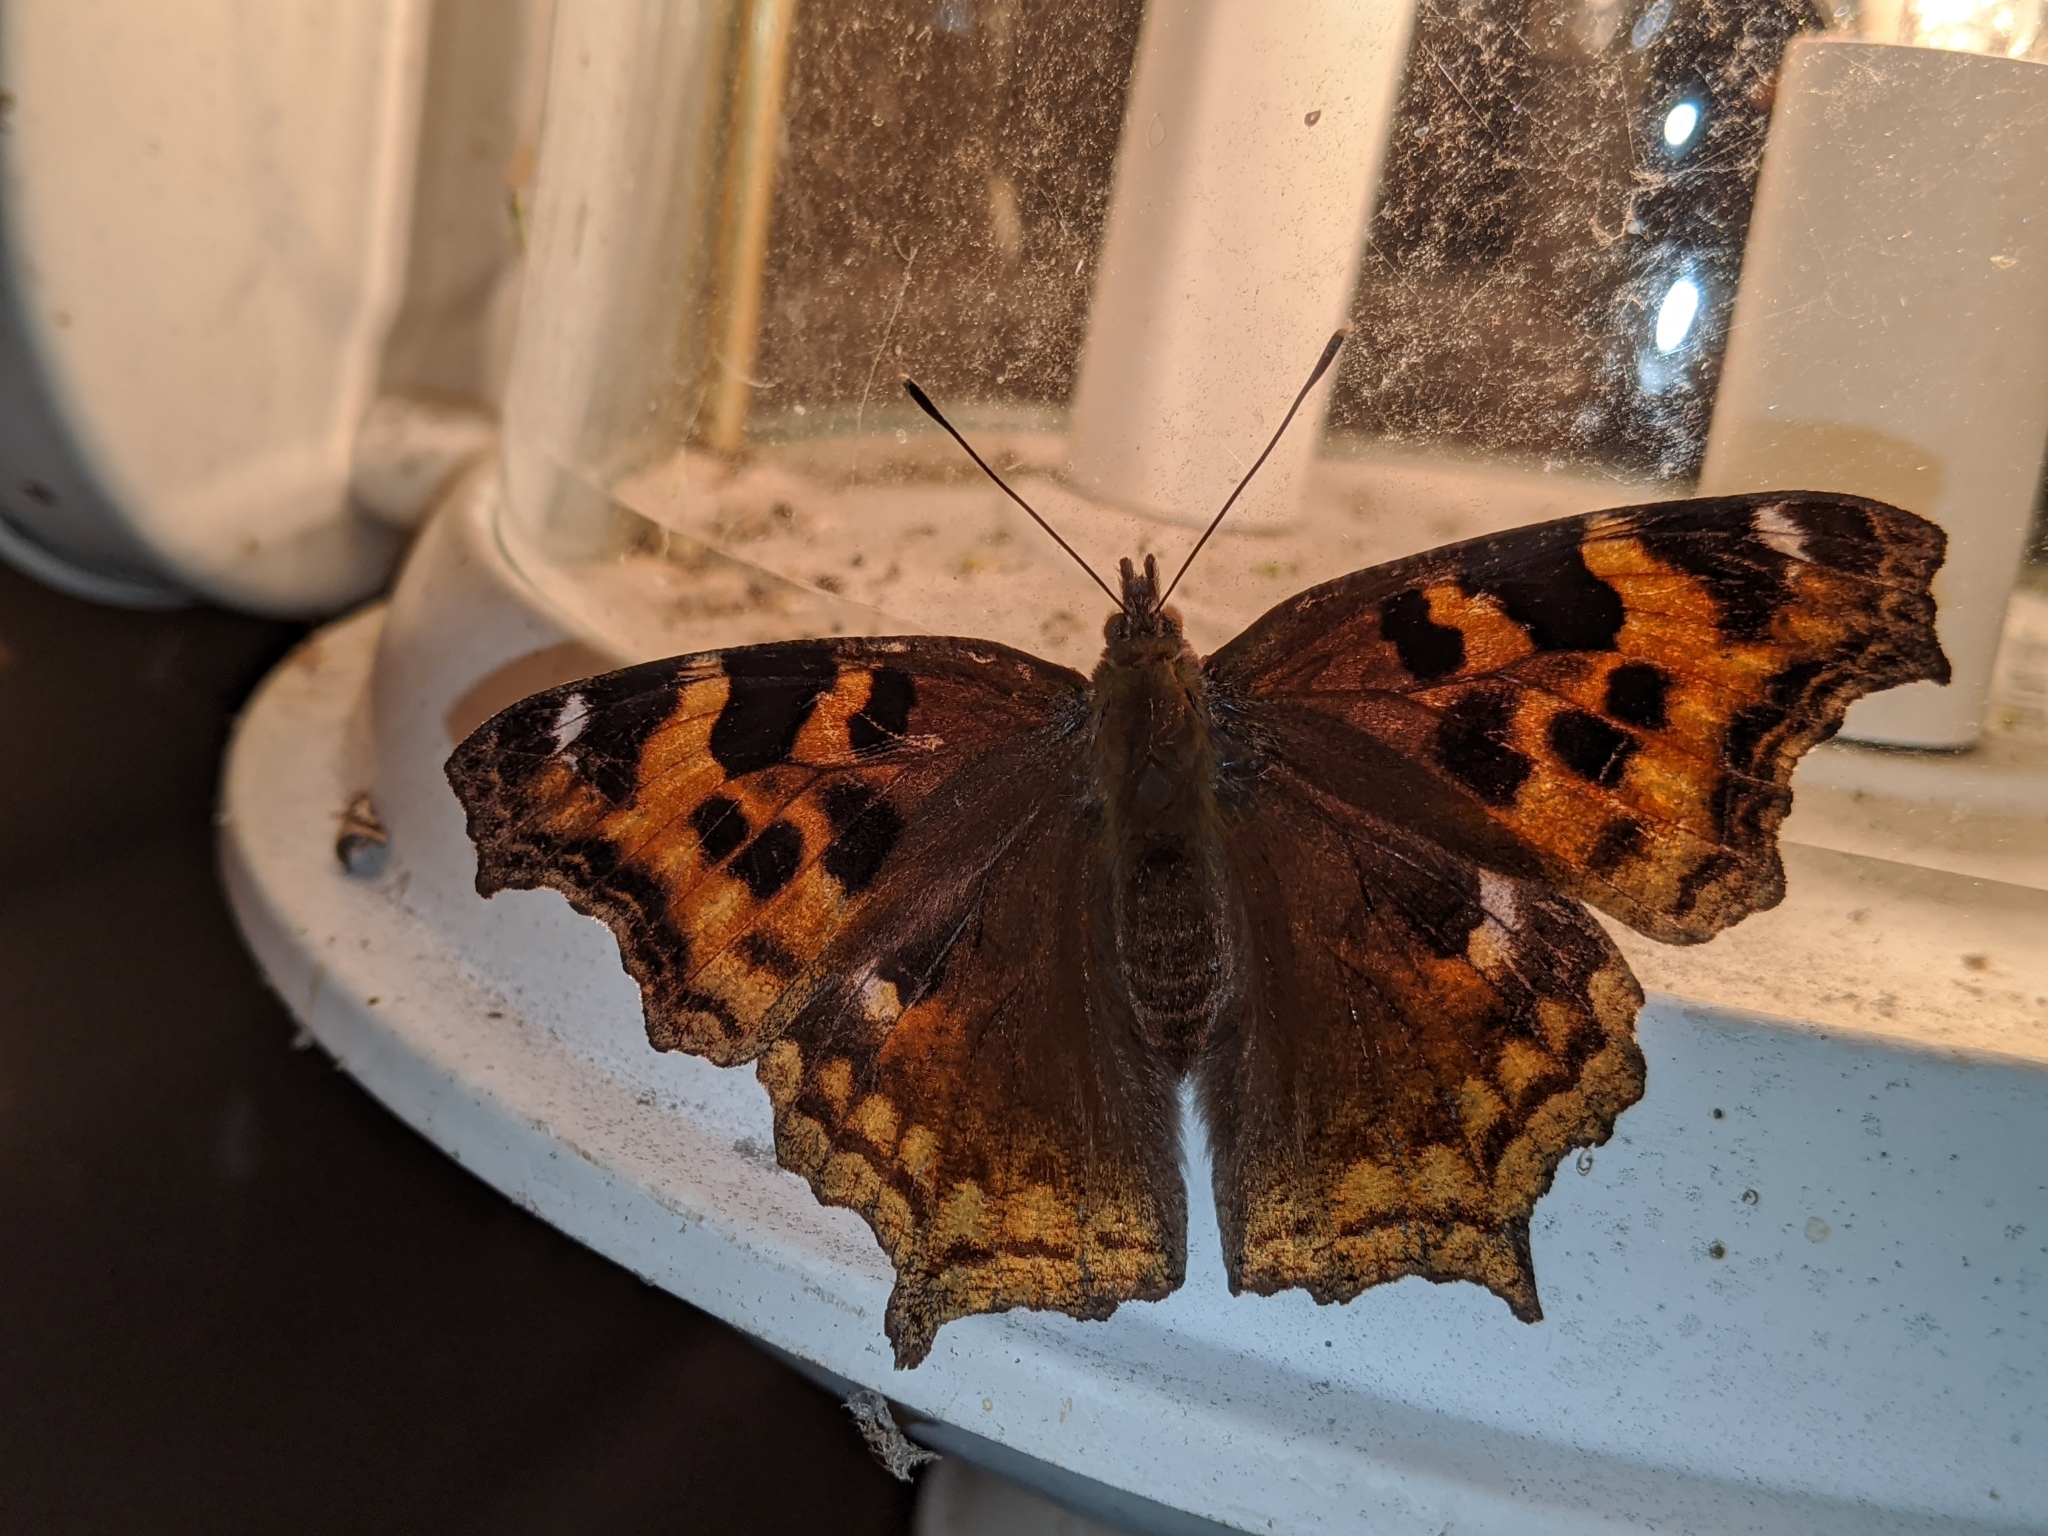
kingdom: Animalia
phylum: Arthropoda
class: Insecta
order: Lepidoptera
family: Nymphalidae
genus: Polygonia
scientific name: Polygonia vaualbum
